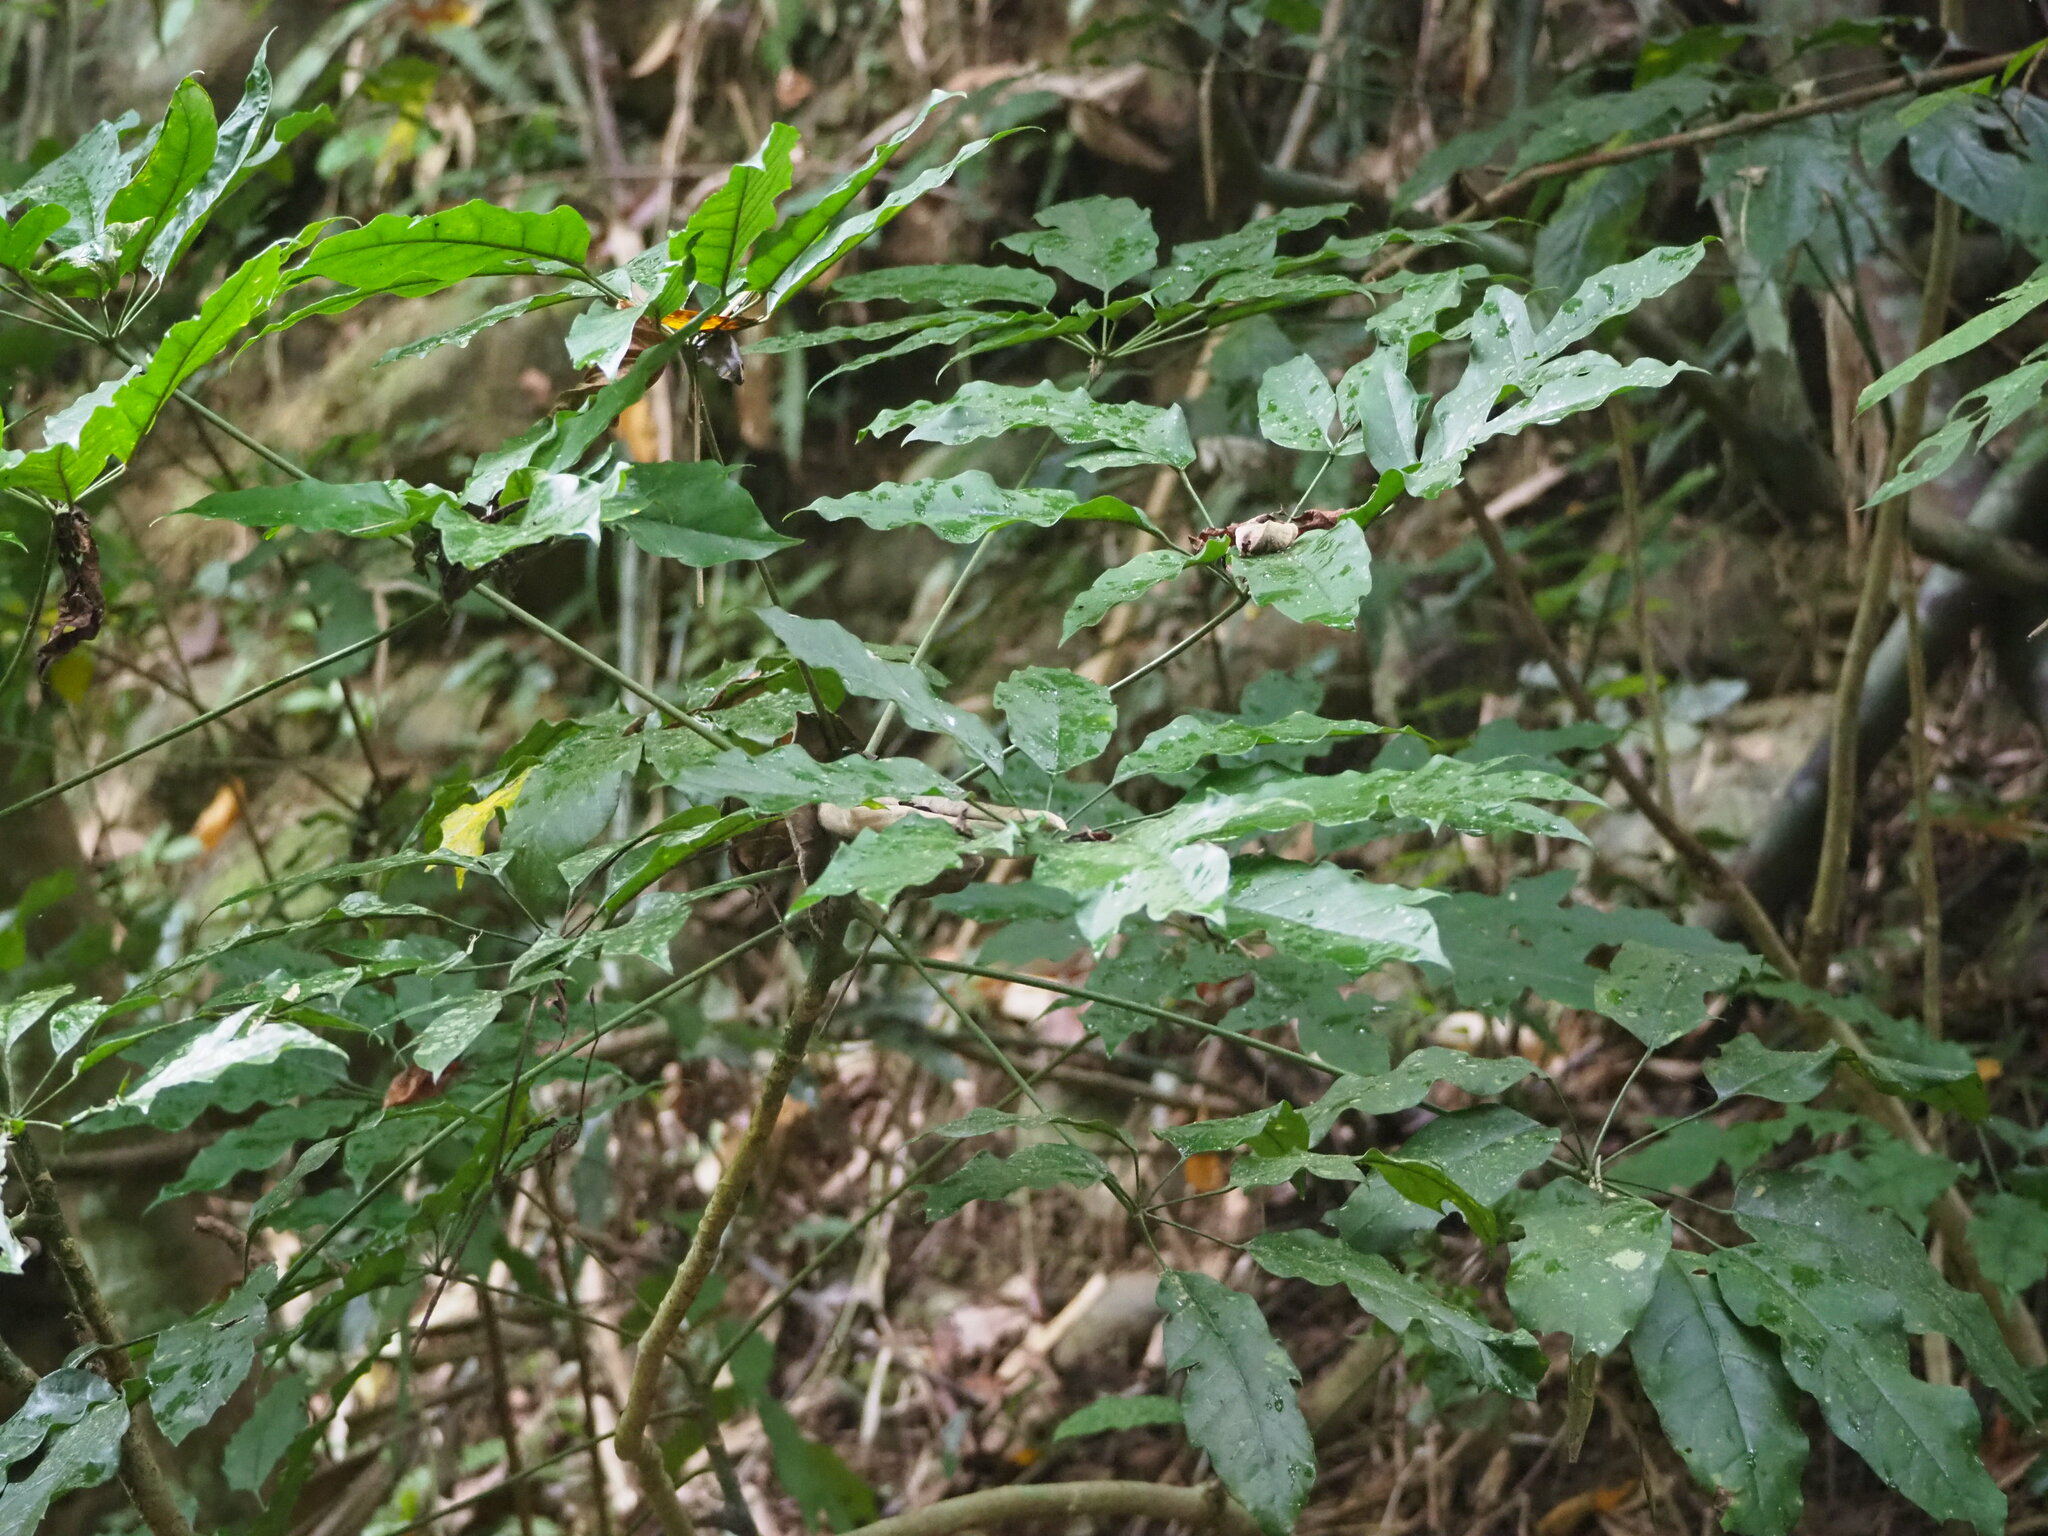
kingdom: Plantae
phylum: Tracheophyta
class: Magnoliopsida
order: Apiales
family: Araliaceae
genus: Heptapleurum
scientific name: Heptapleurum heptaphyllum
